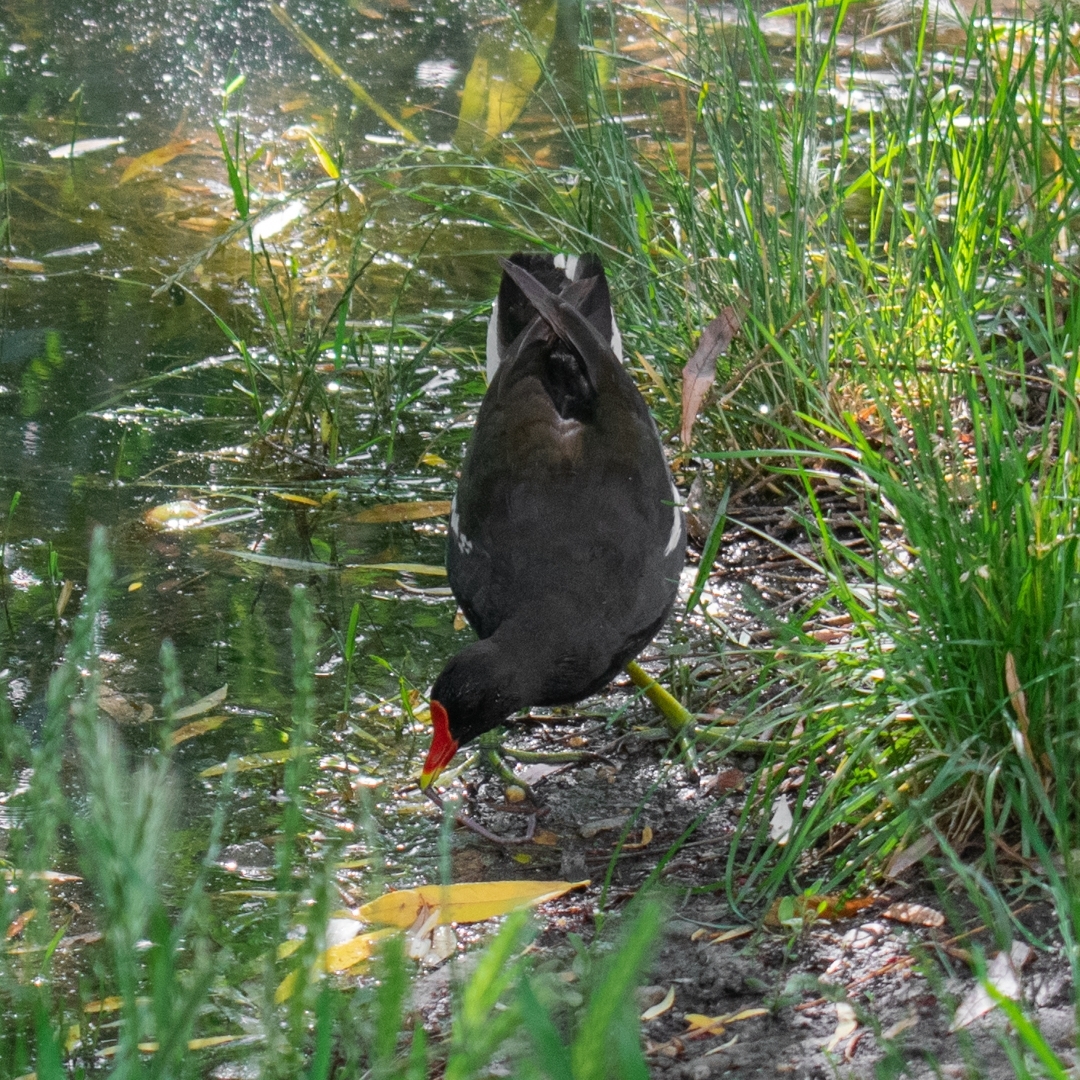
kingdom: Animalia
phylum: Chordata
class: Aves
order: Gruiformes
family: Rallidae
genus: Gallinula
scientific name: Gallinula chloropus
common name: Common moorhen
